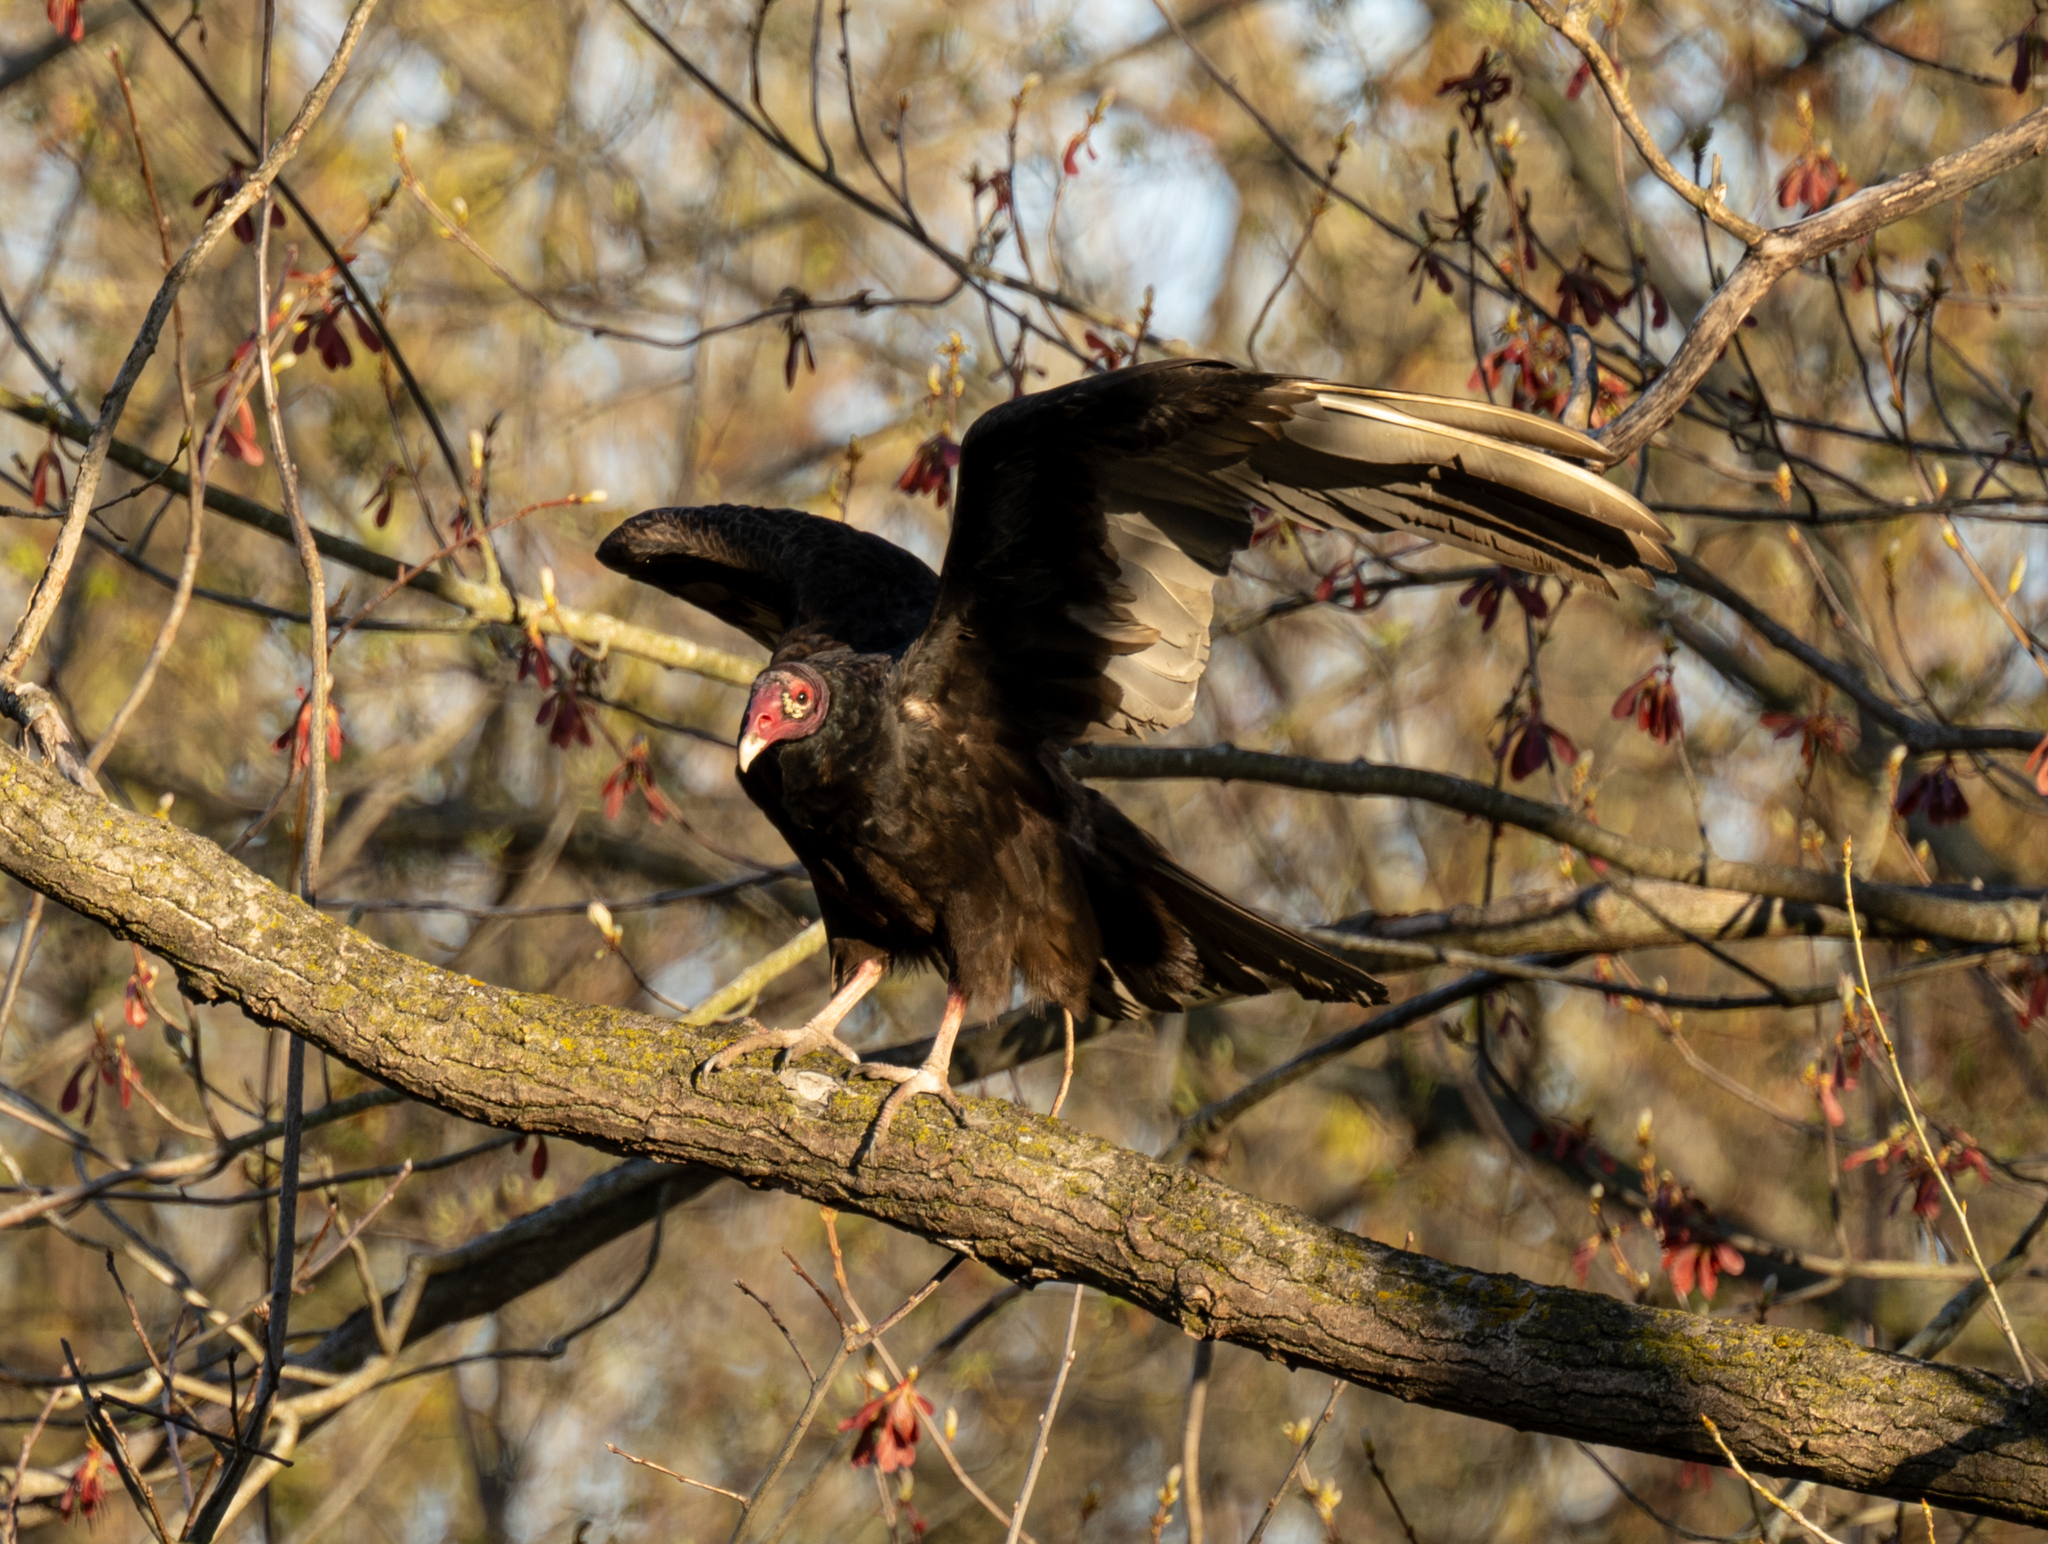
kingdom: Animalia
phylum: Chordata
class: Aves
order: Accipitriformes
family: Cathartidae
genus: Cathartes
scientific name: Cathartes aura
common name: Turkey vulture
